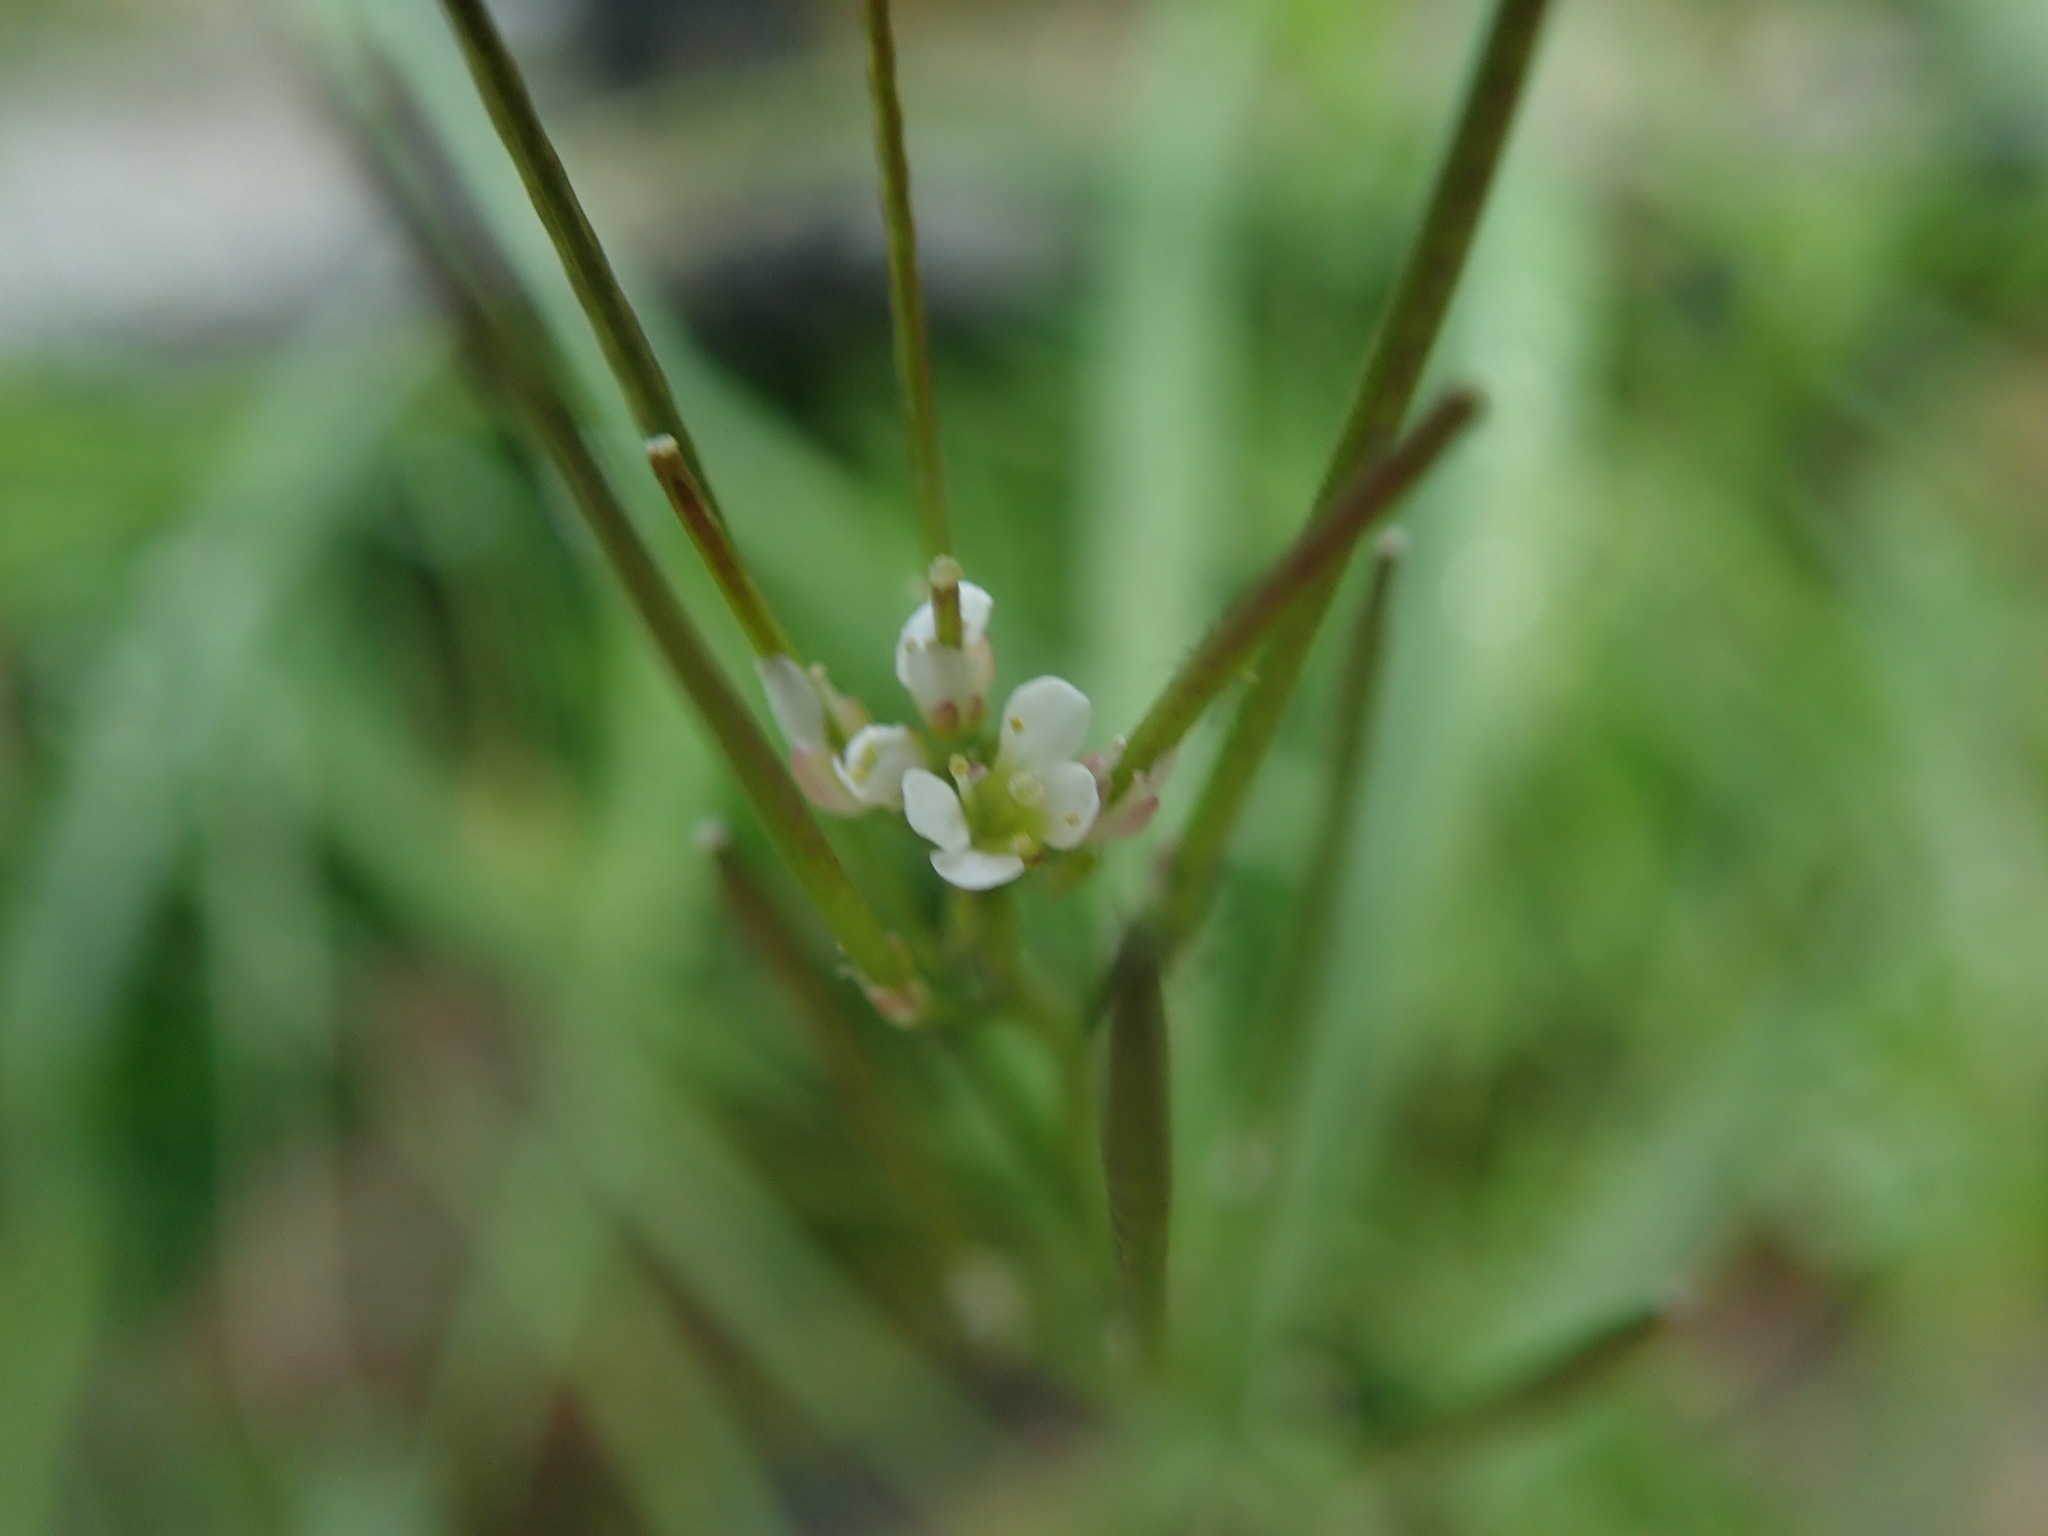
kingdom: Plantae
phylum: Tracheophyta
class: Magnoliopsida
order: Brassicales
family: Brassicaceae
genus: Cardamine
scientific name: Cardamine hirsuta
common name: Hairy bittercress
